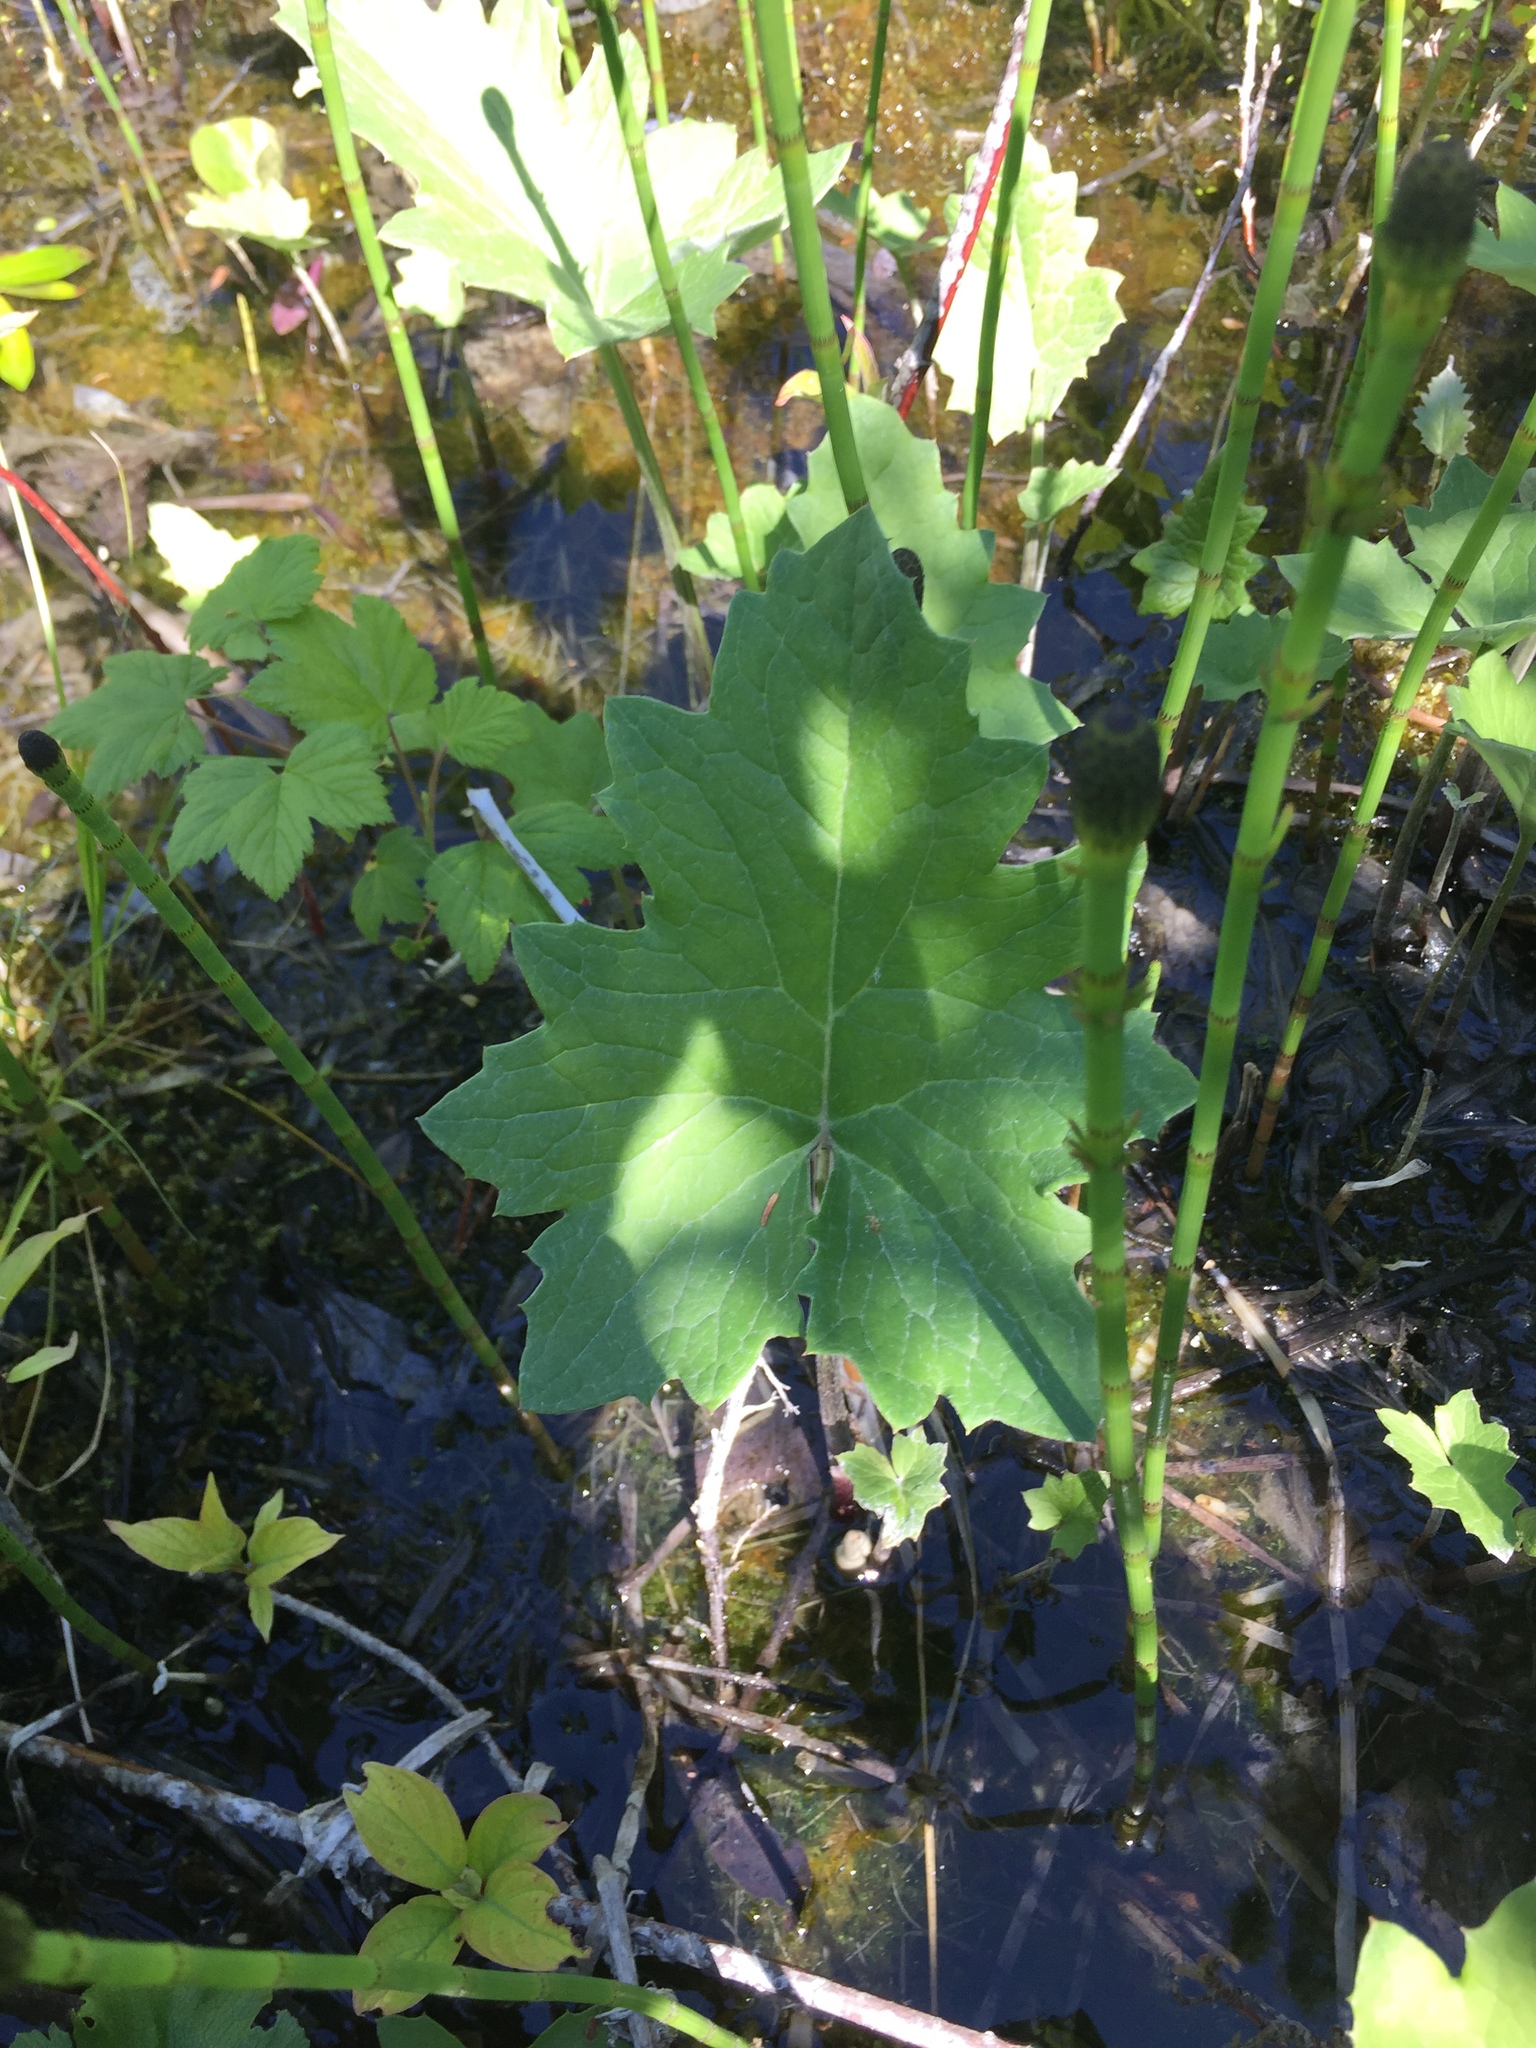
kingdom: Plantae
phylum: Tracheophyta
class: Magnoliopsida
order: Asterales
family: Asteraceae
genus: Petasites
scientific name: Petasites frigidus
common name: Arctic butterbur
